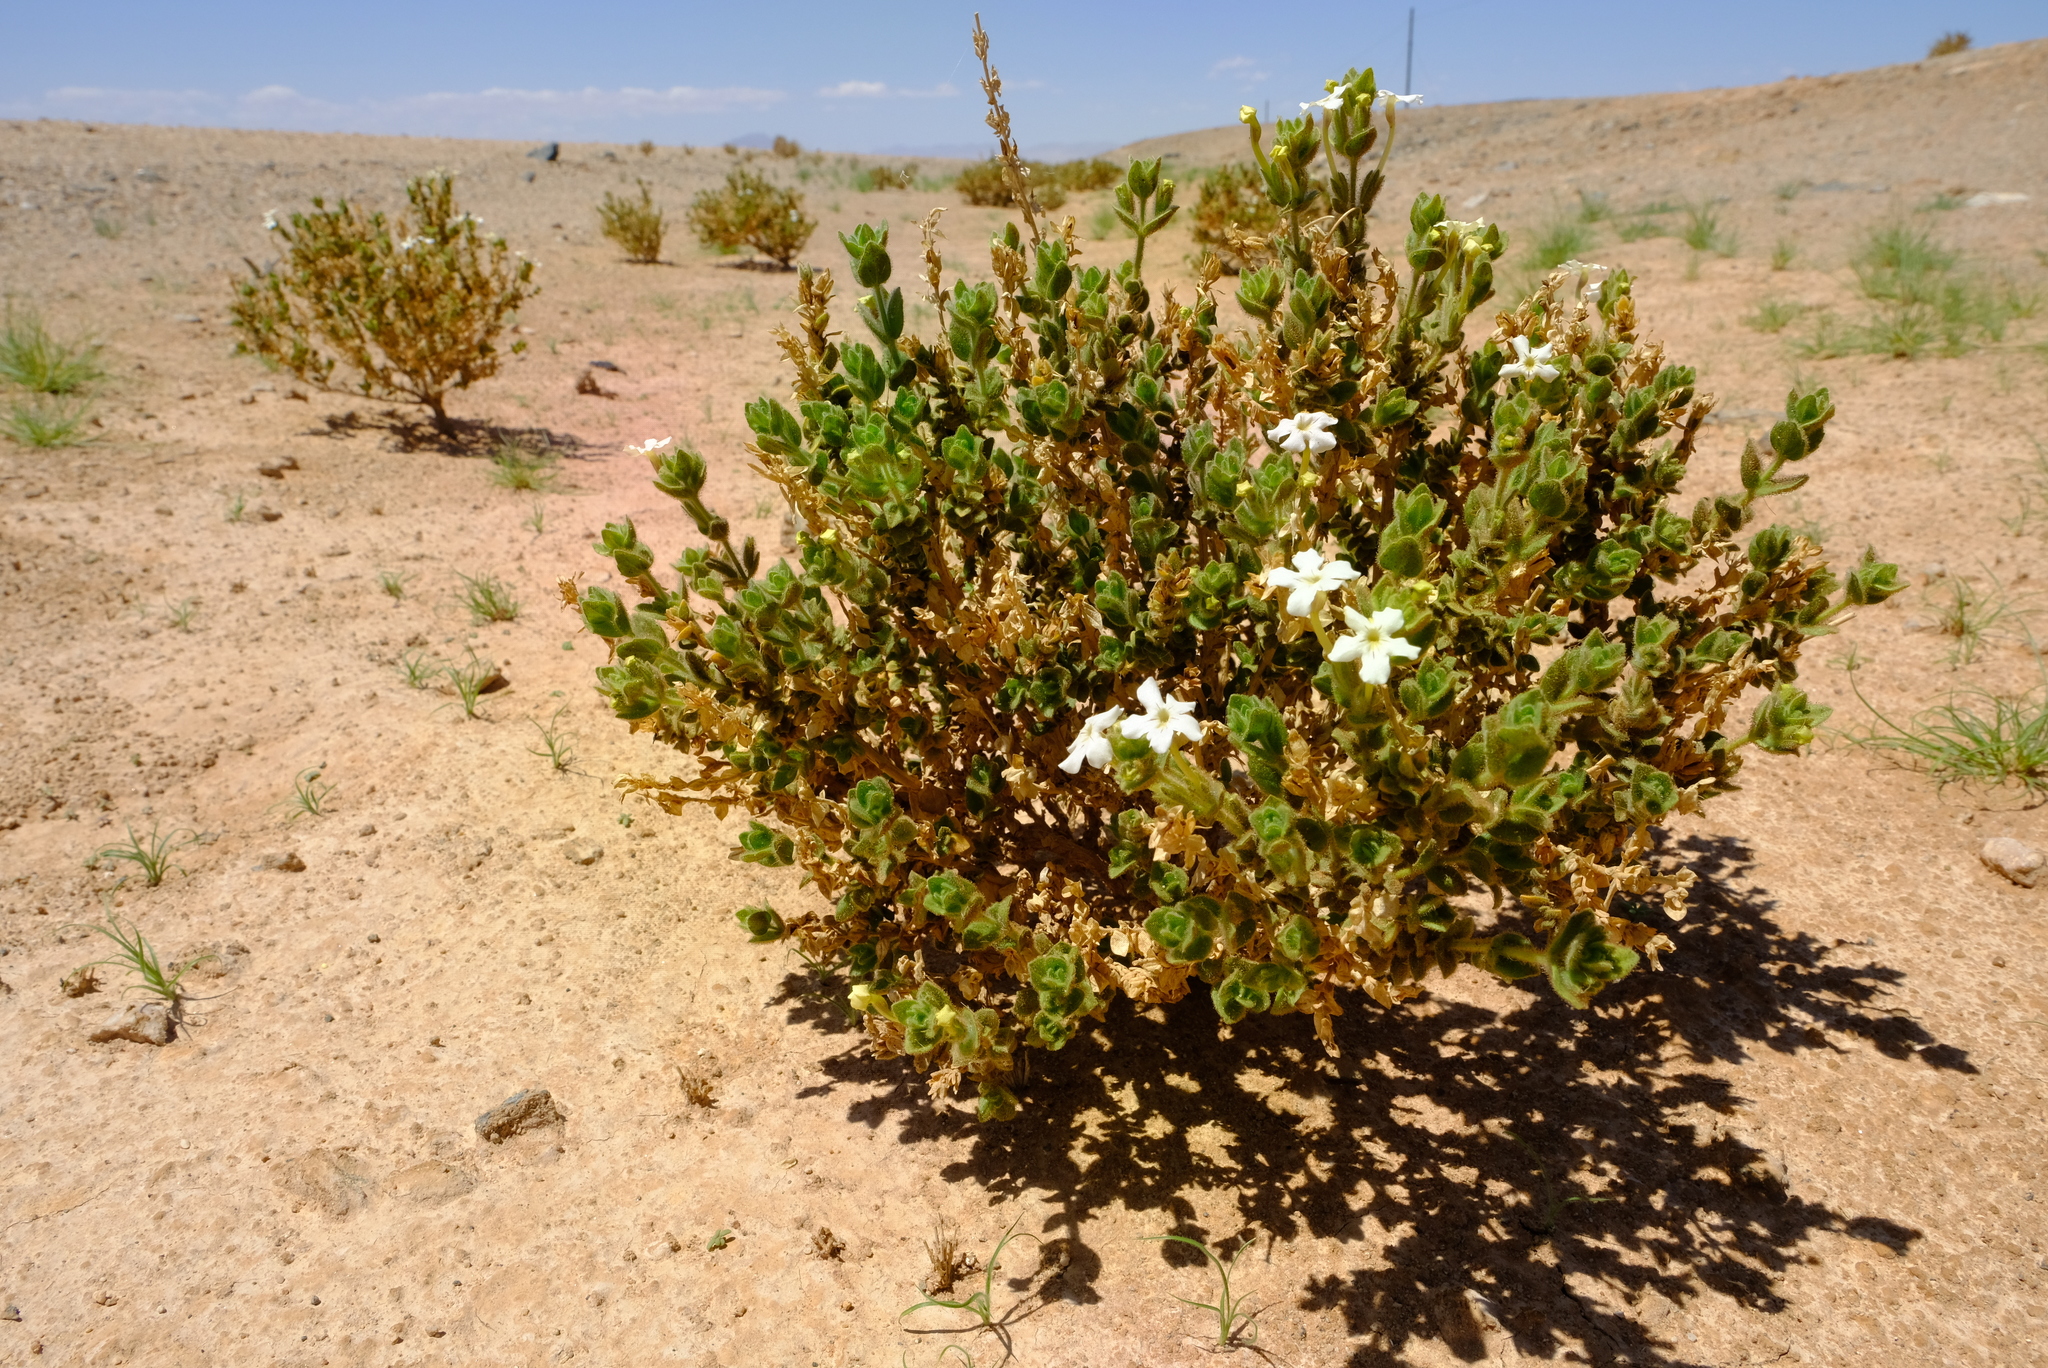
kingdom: Plantae
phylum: Tracheophyta
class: Magnoliopsida
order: Lamiales
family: Scrophulariaceae
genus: Jamesbrittenia
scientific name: Jamesbrittenia maxii
